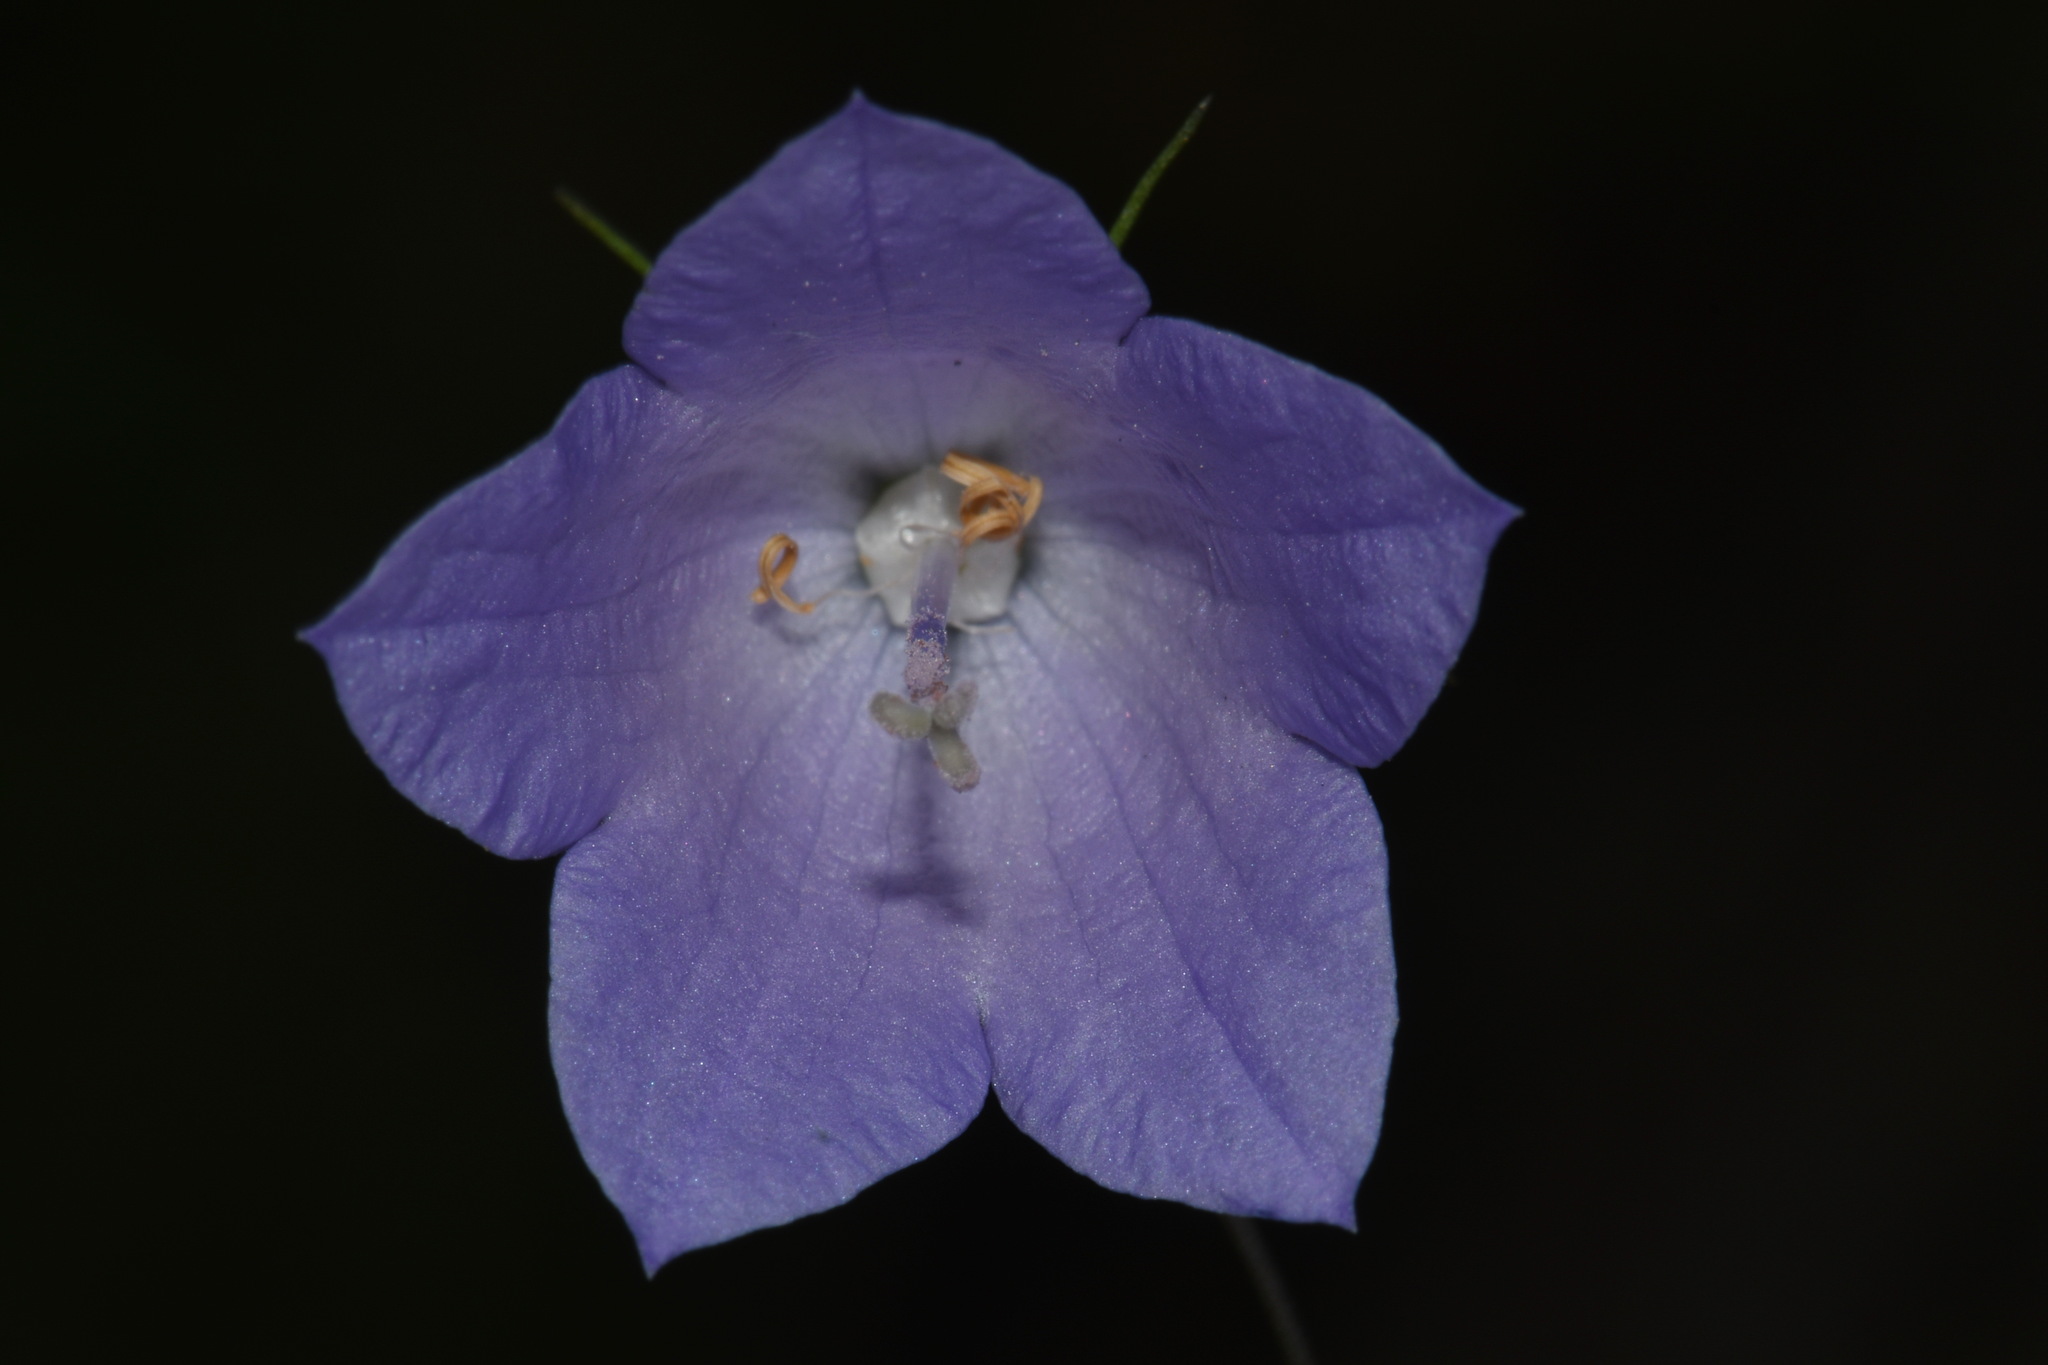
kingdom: Plantae
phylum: Tracheophyta
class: Magnoliopsida
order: Asterales
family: Campanulaceae
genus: Campanula
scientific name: Campanula petiolata
